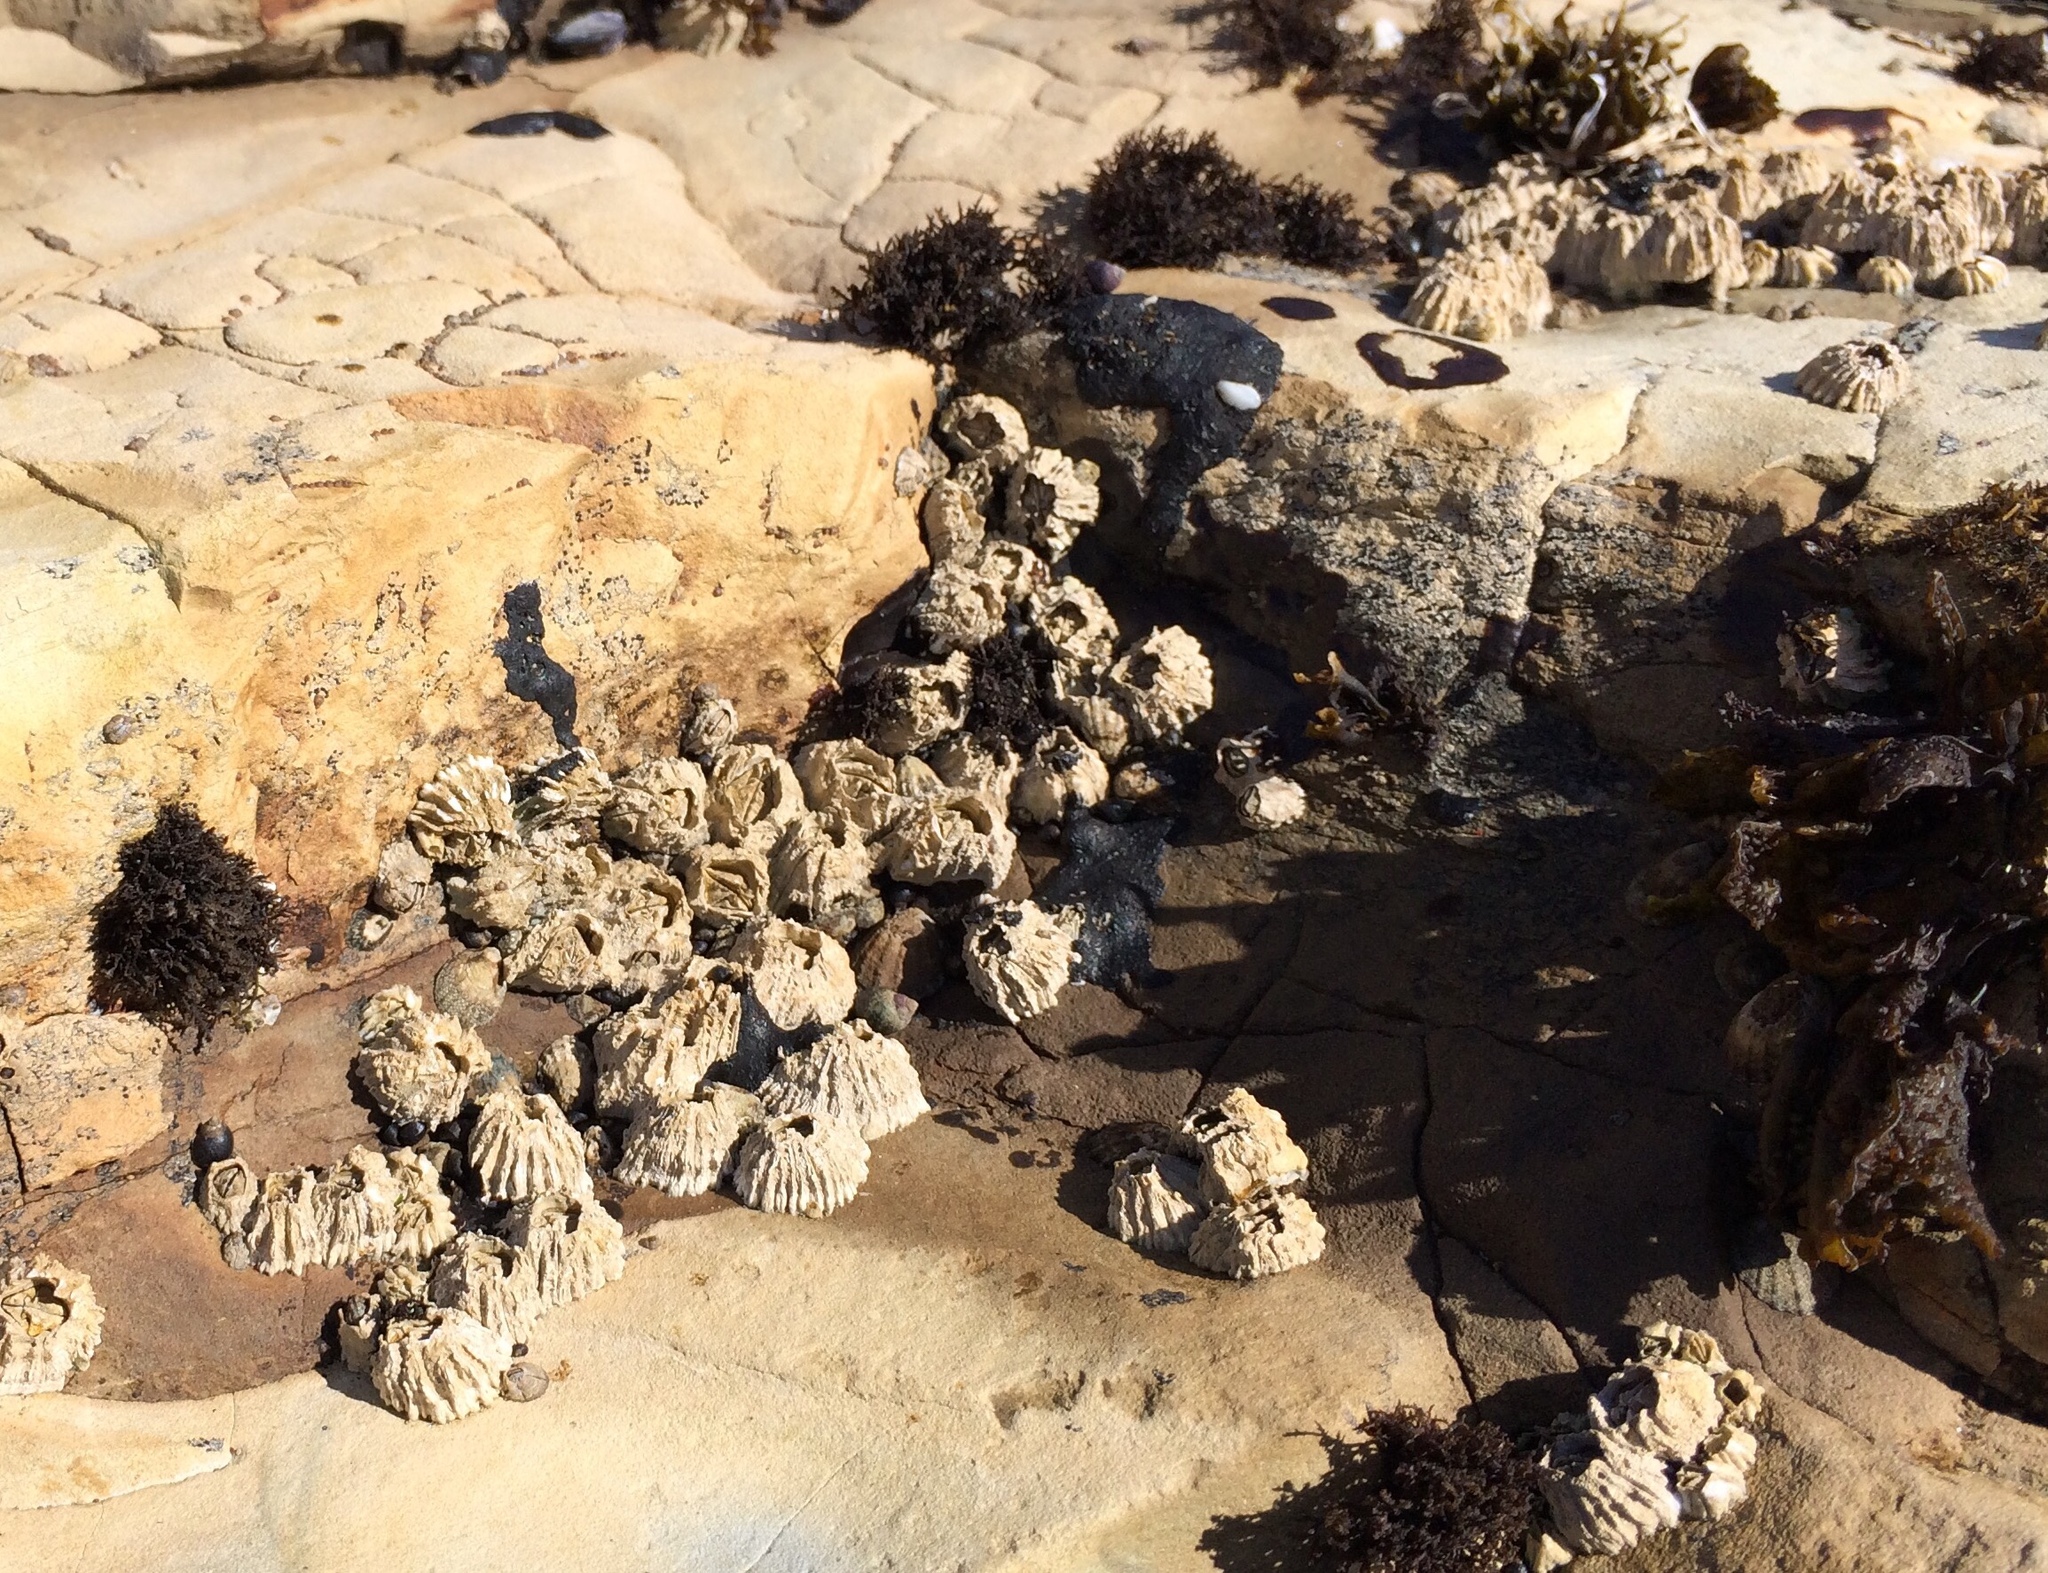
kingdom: Animalia
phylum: Arthropoda
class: Maxillopoda
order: Sessilia
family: Balanidae
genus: Balanus
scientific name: Balanus glandula
